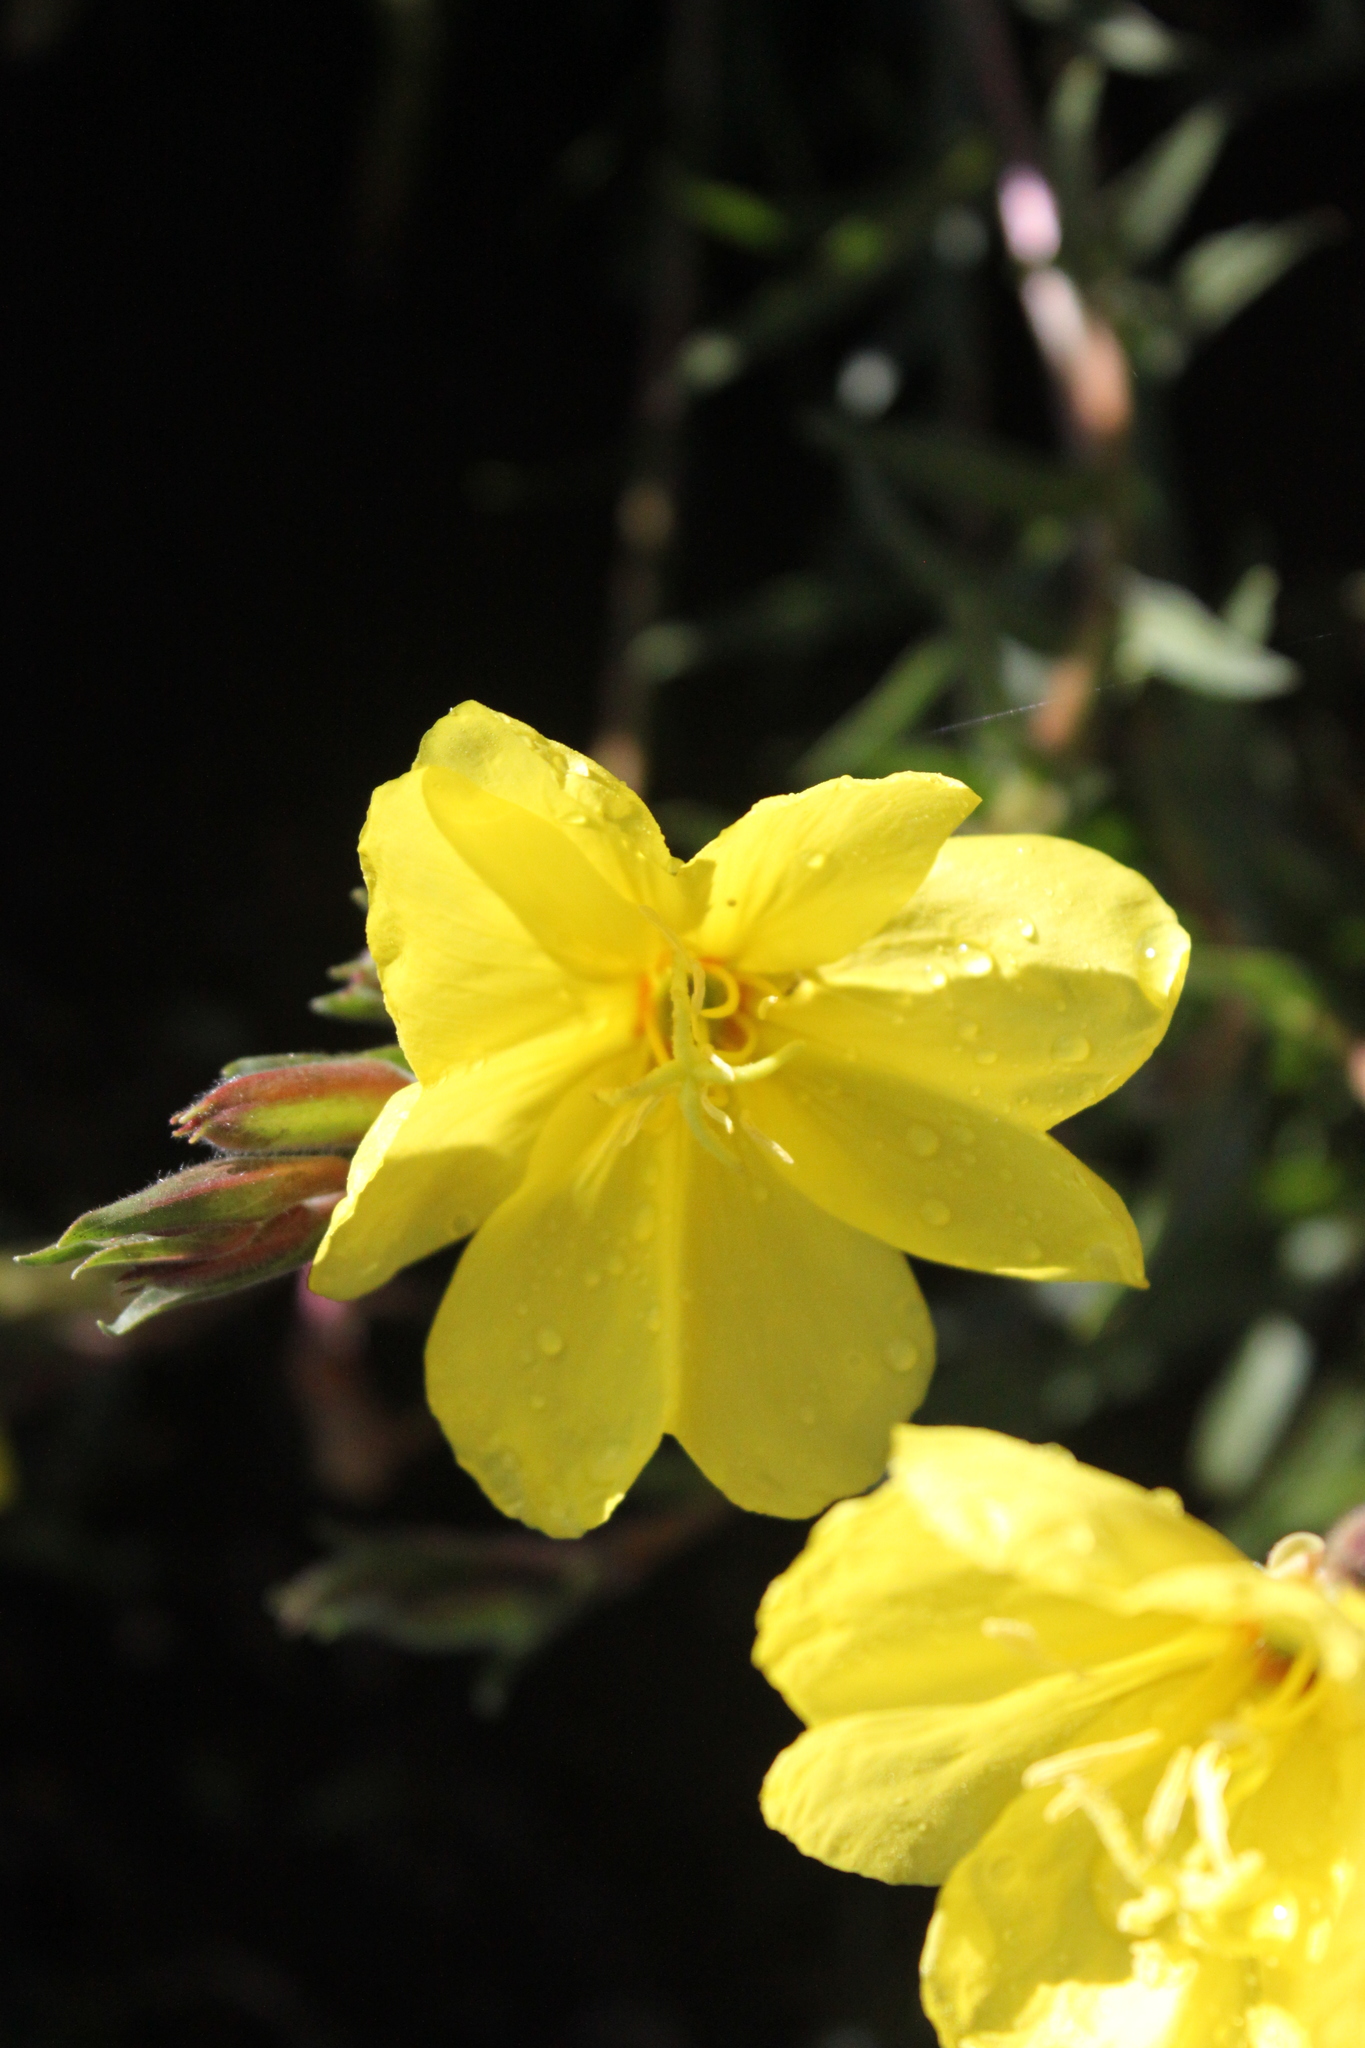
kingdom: Plantae
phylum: Tracheophyta
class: Magnoliopsida
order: Myrtales
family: Onagraceae
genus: Oenothera
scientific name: Oenothera stricta
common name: Fragrant evening-primrose
